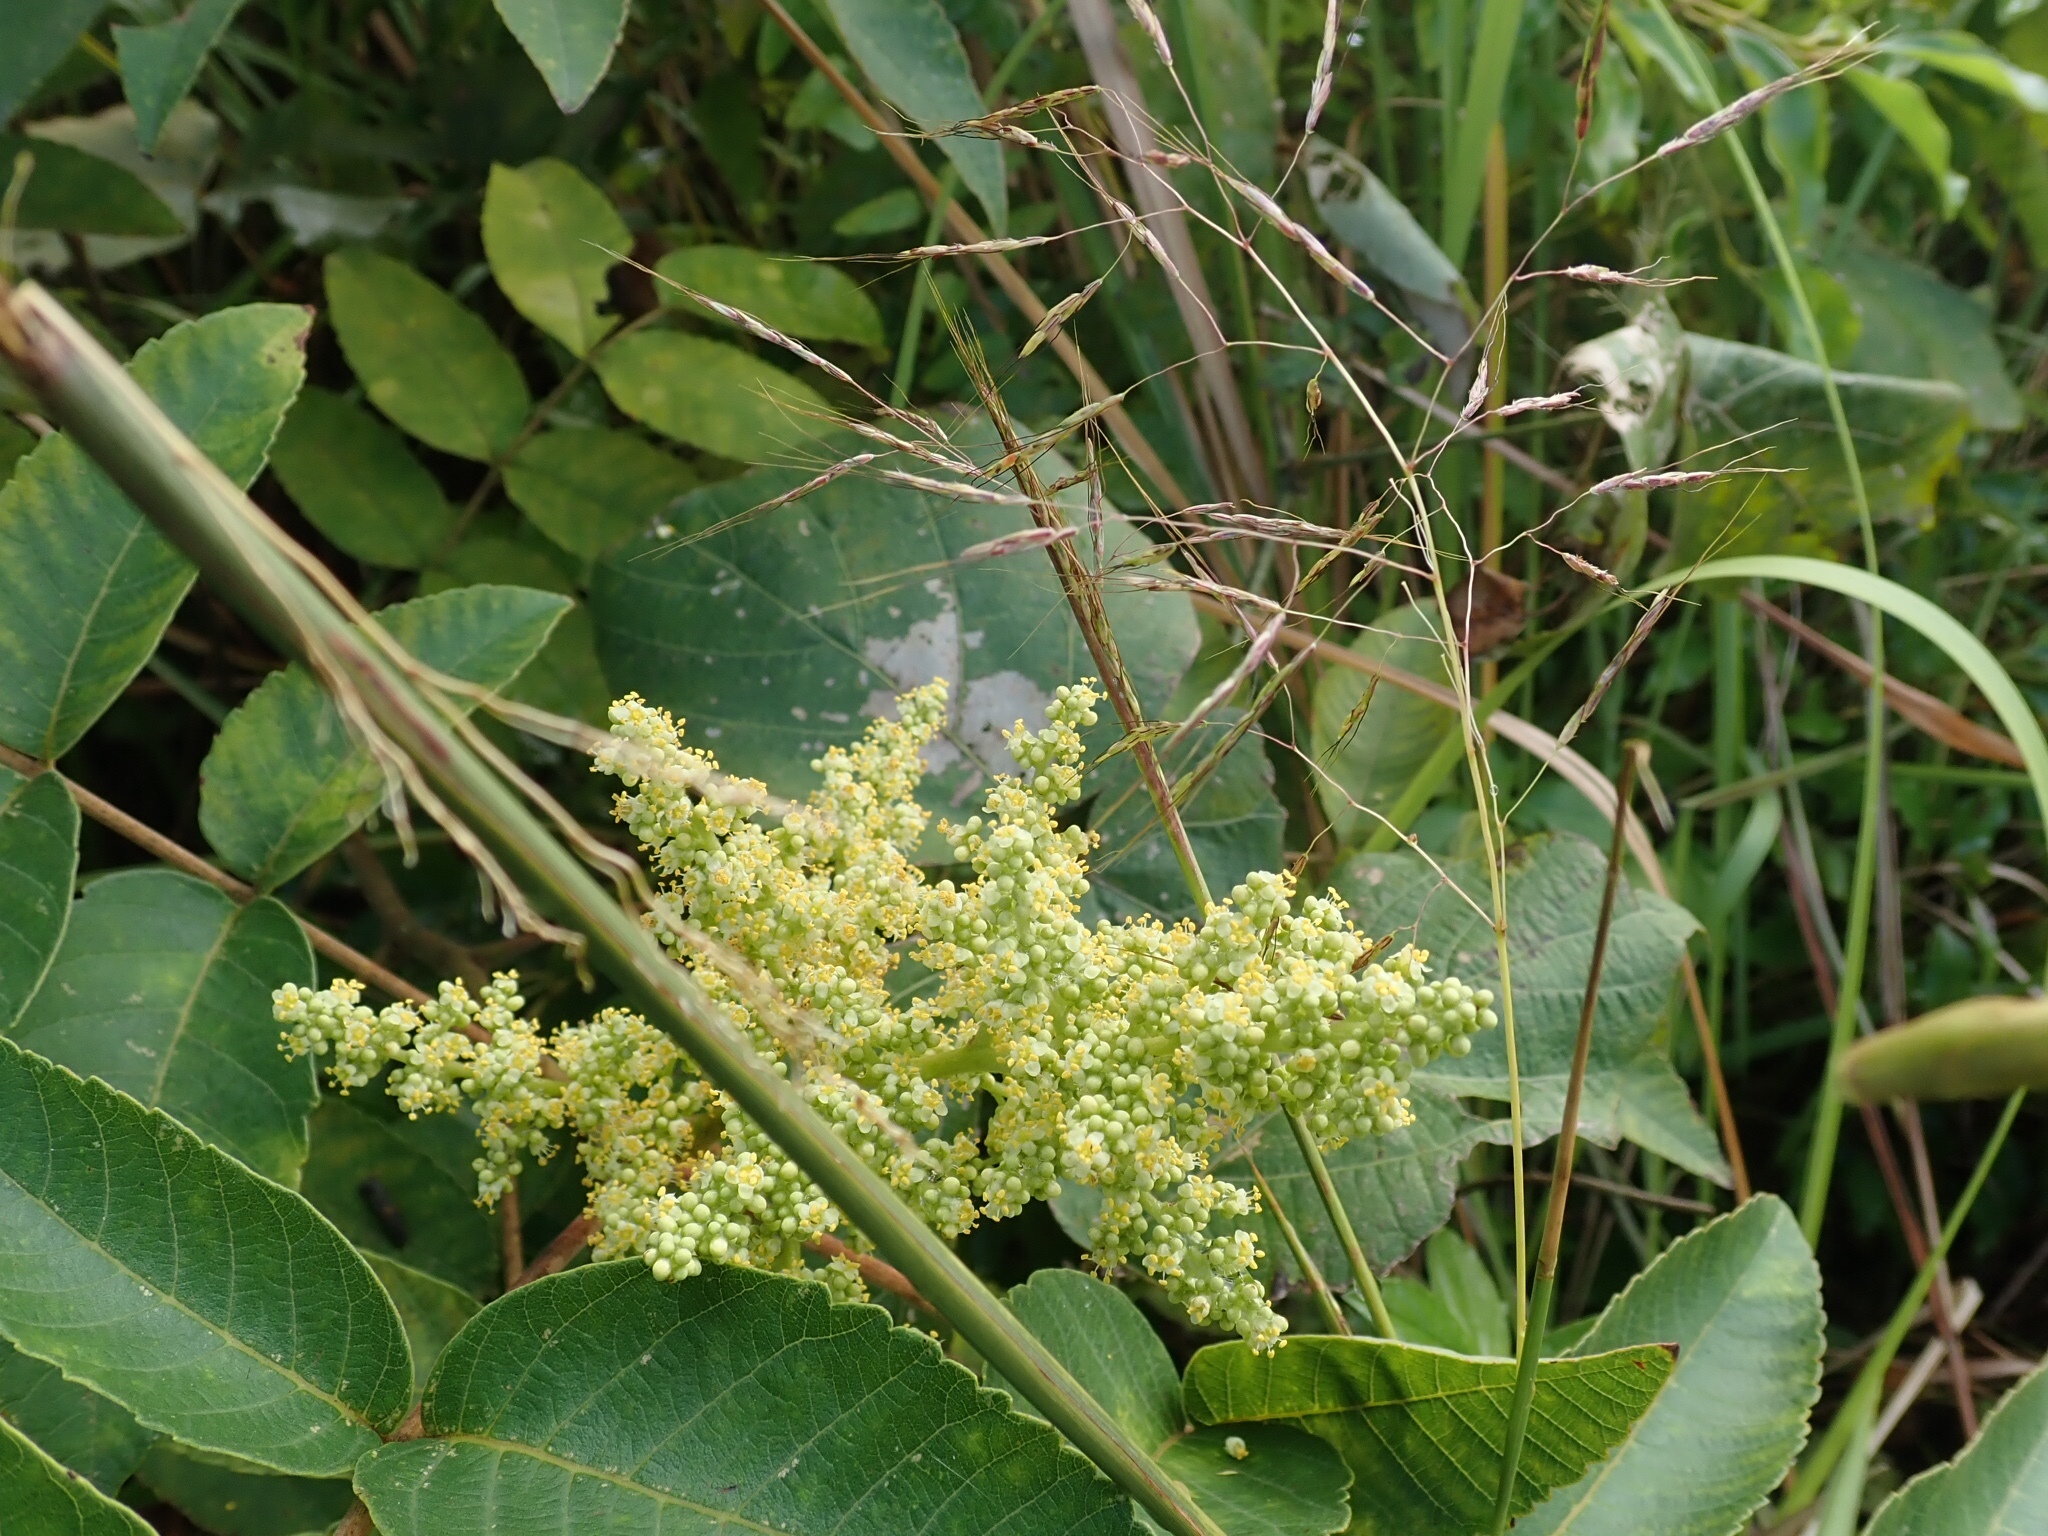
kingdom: Plantae
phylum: Tracheophyta
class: Magnoliopsida
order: Sapindales
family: Anacardiaceae
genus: Rhus
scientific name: Rhus chinensis
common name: Chinese gall
